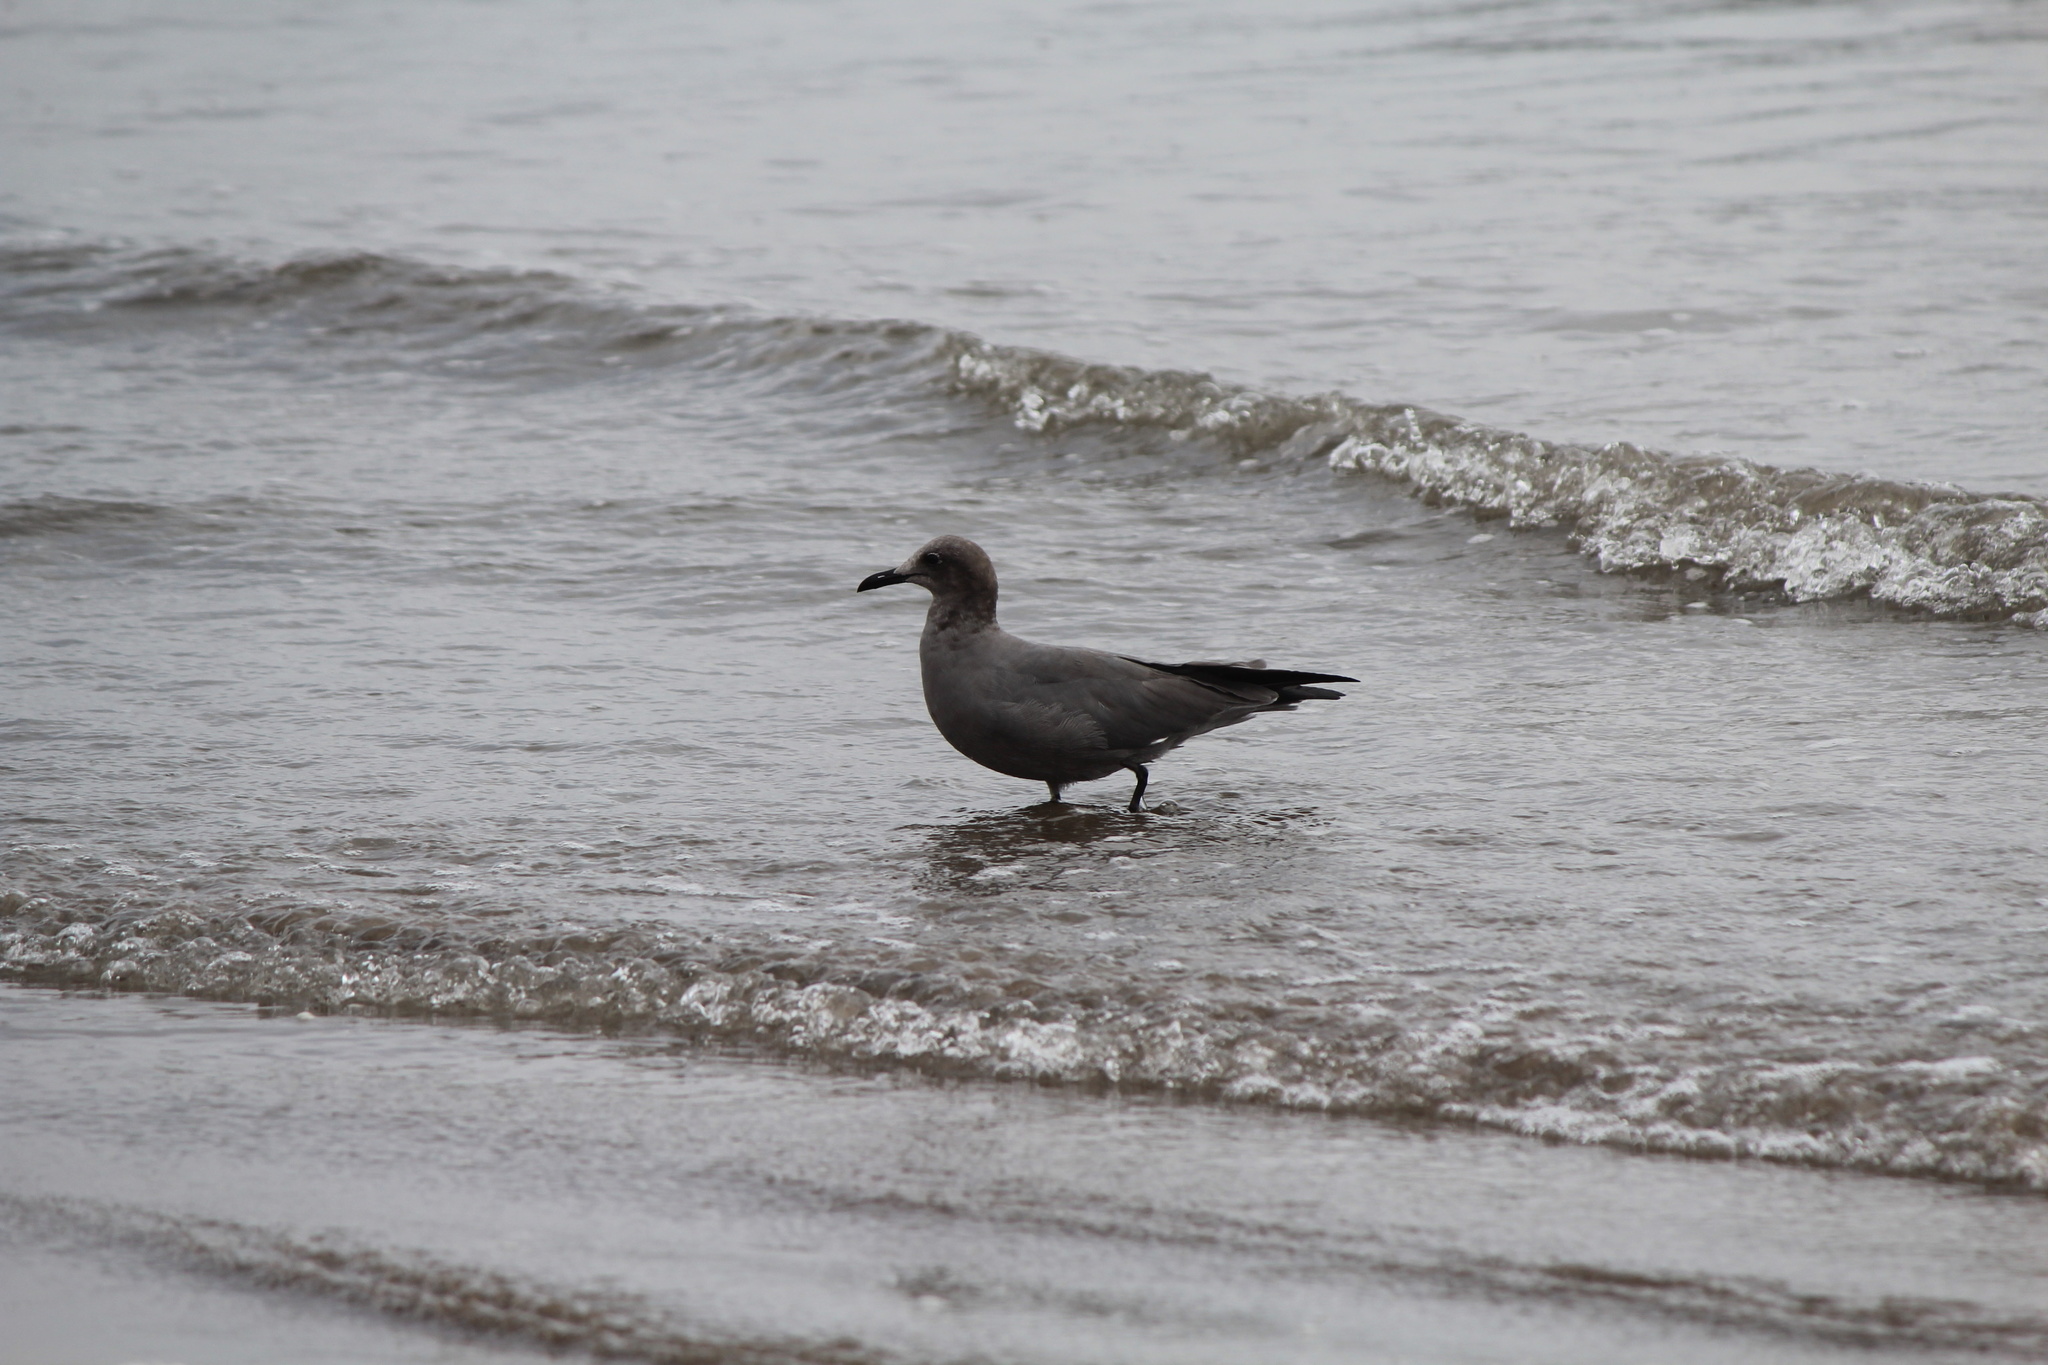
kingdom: Animalia
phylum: Chordata
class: Aves
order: Charadriiformes
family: Laridae
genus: Leucophaeus
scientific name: Leucophaeus modestus
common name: Gray gull
